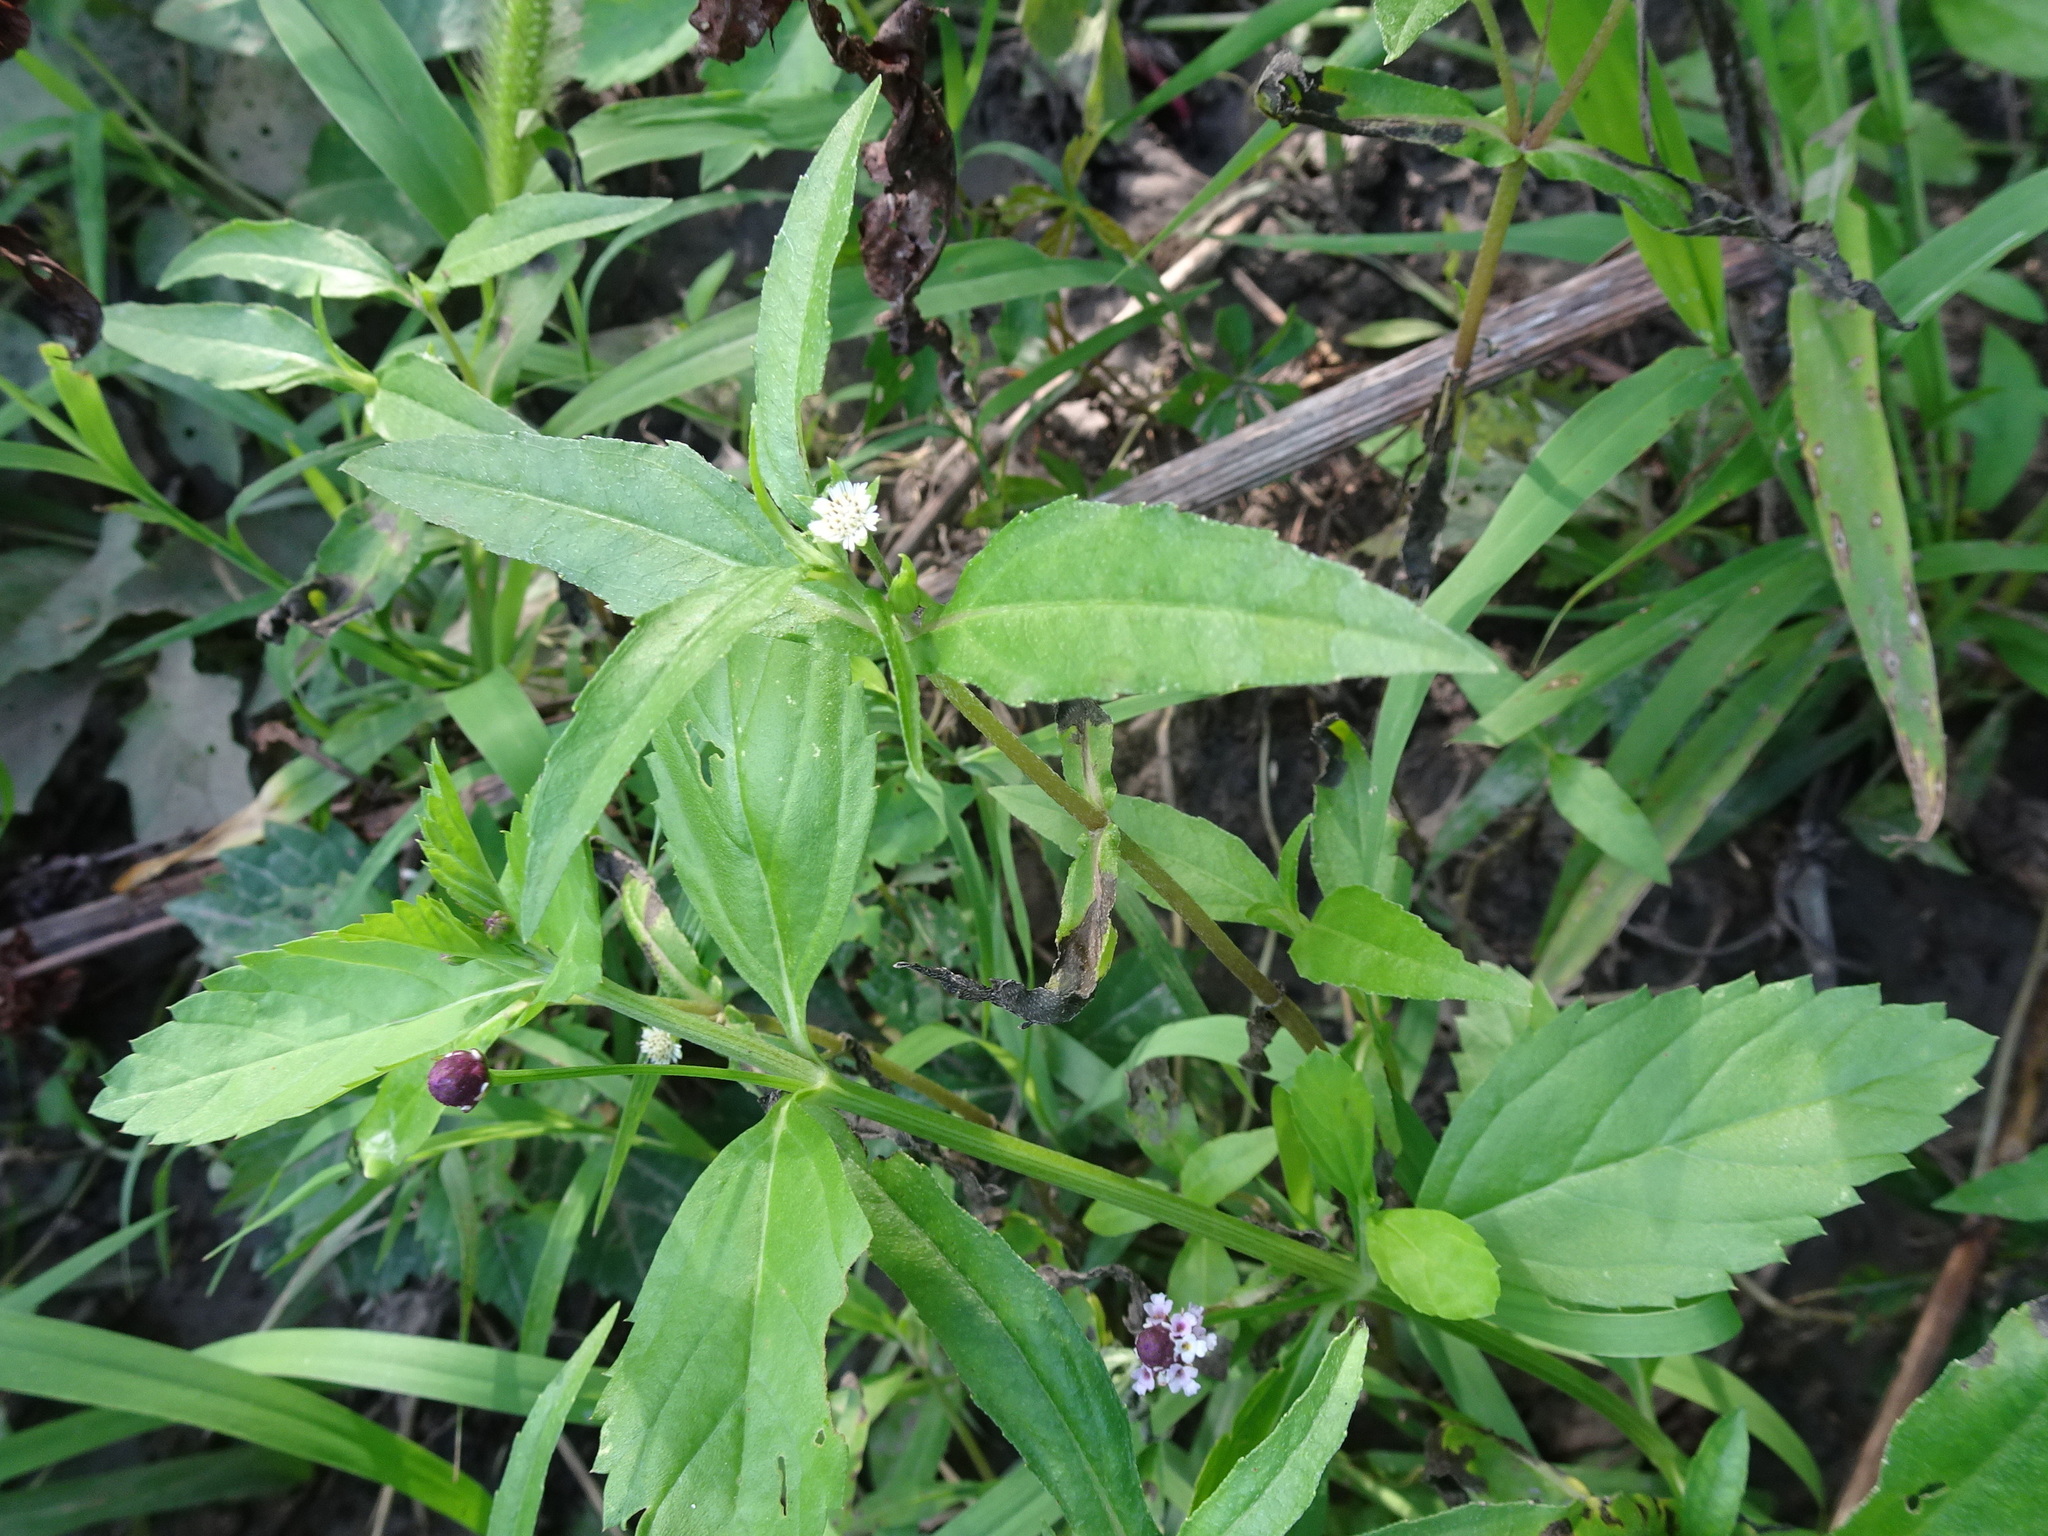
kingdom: Plantae
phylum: Tracheophyta
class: Magnoliopsida
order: Asterales
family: Asteraceae
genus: Eclipta
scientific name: Eclipta prostrata
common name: False daisy
